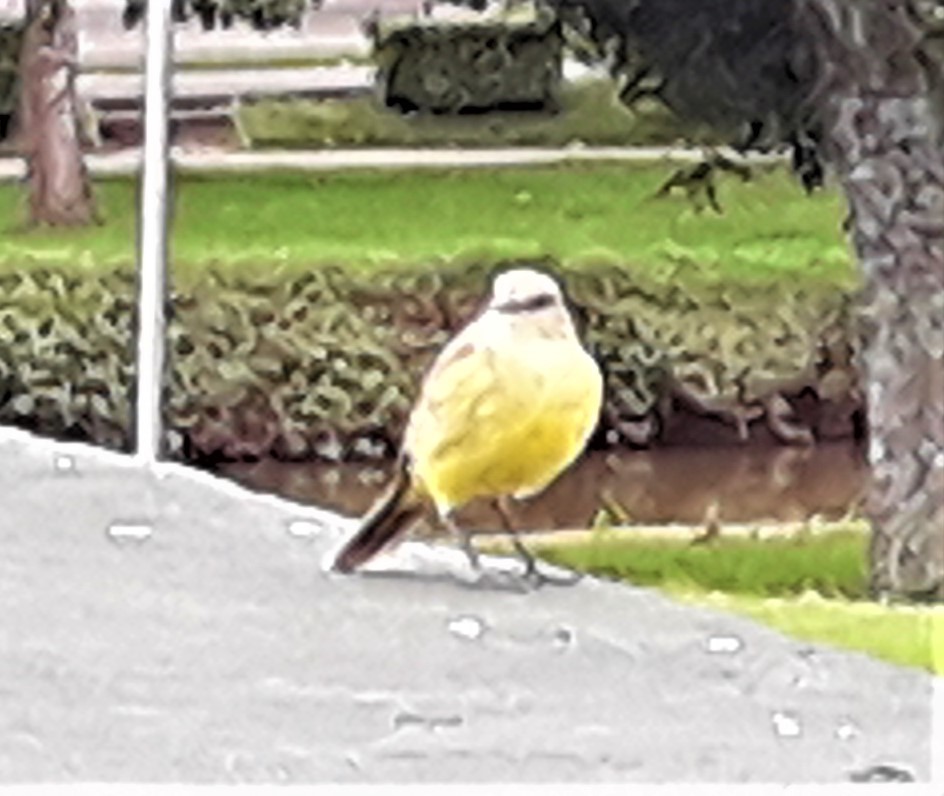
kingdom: Animalia
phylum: Chordata
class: Aves
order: Passeriformes
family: Tyrannidae
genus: Machetornis
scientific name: Machetornis rixosa
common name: Cattle tyrant
